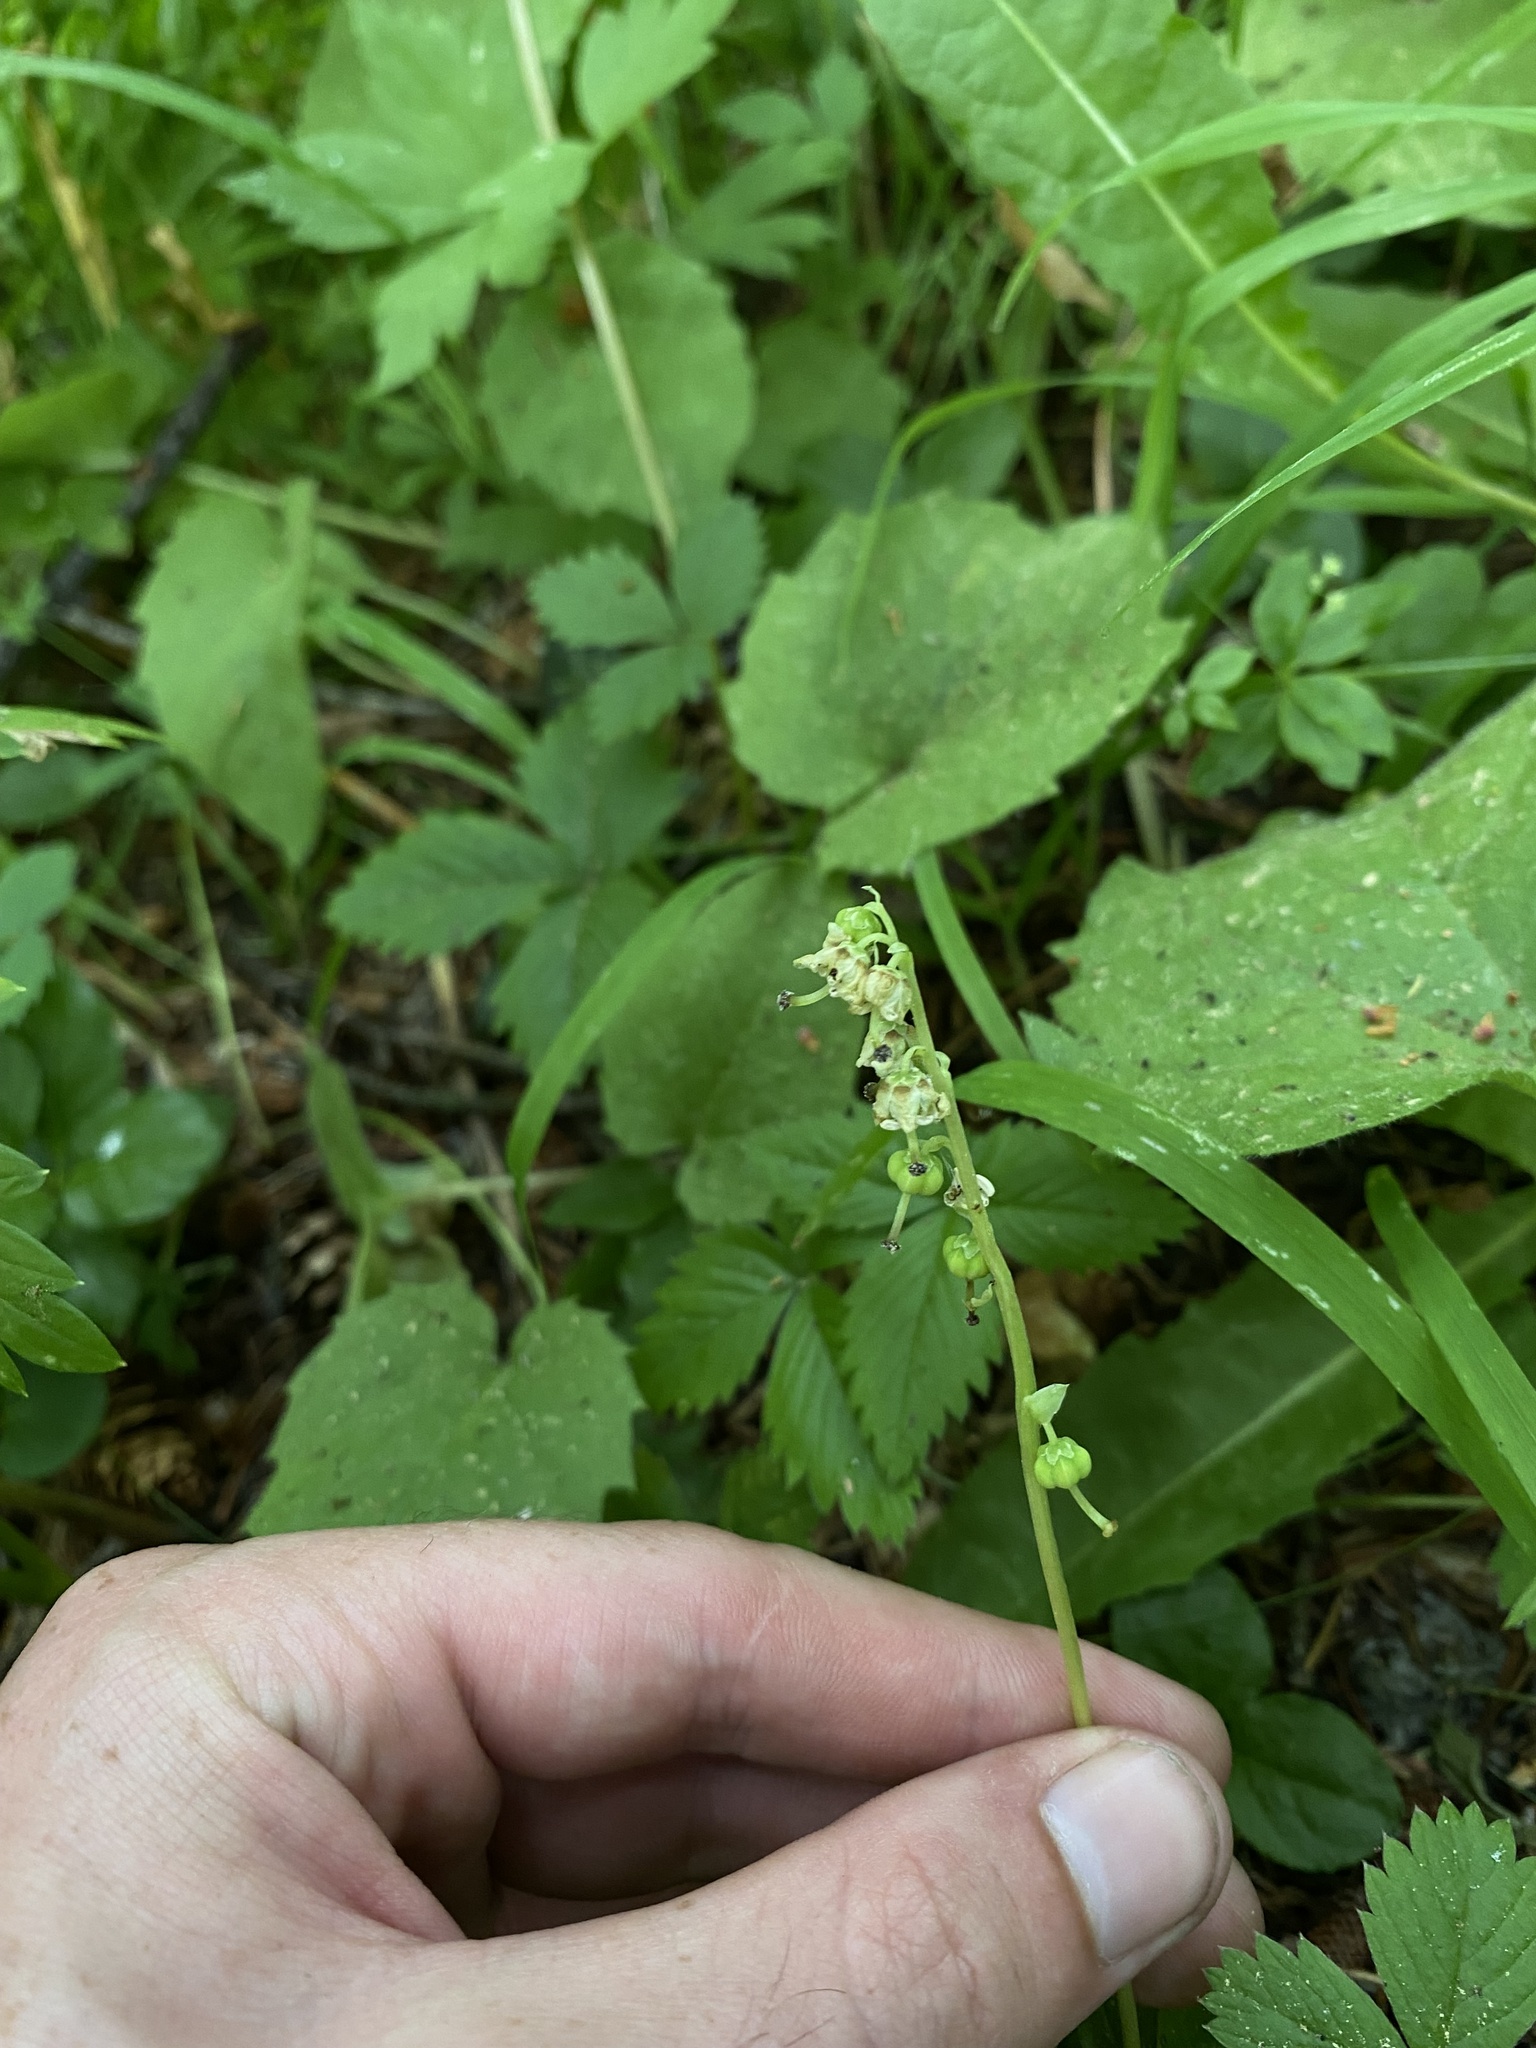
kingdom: Plantae
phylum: Tracheophyta
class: Magnoliopsida
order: Ericales
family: Ericaceae
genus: Orthilia
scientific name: Orthilia secunda
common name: One-sided orthilia
